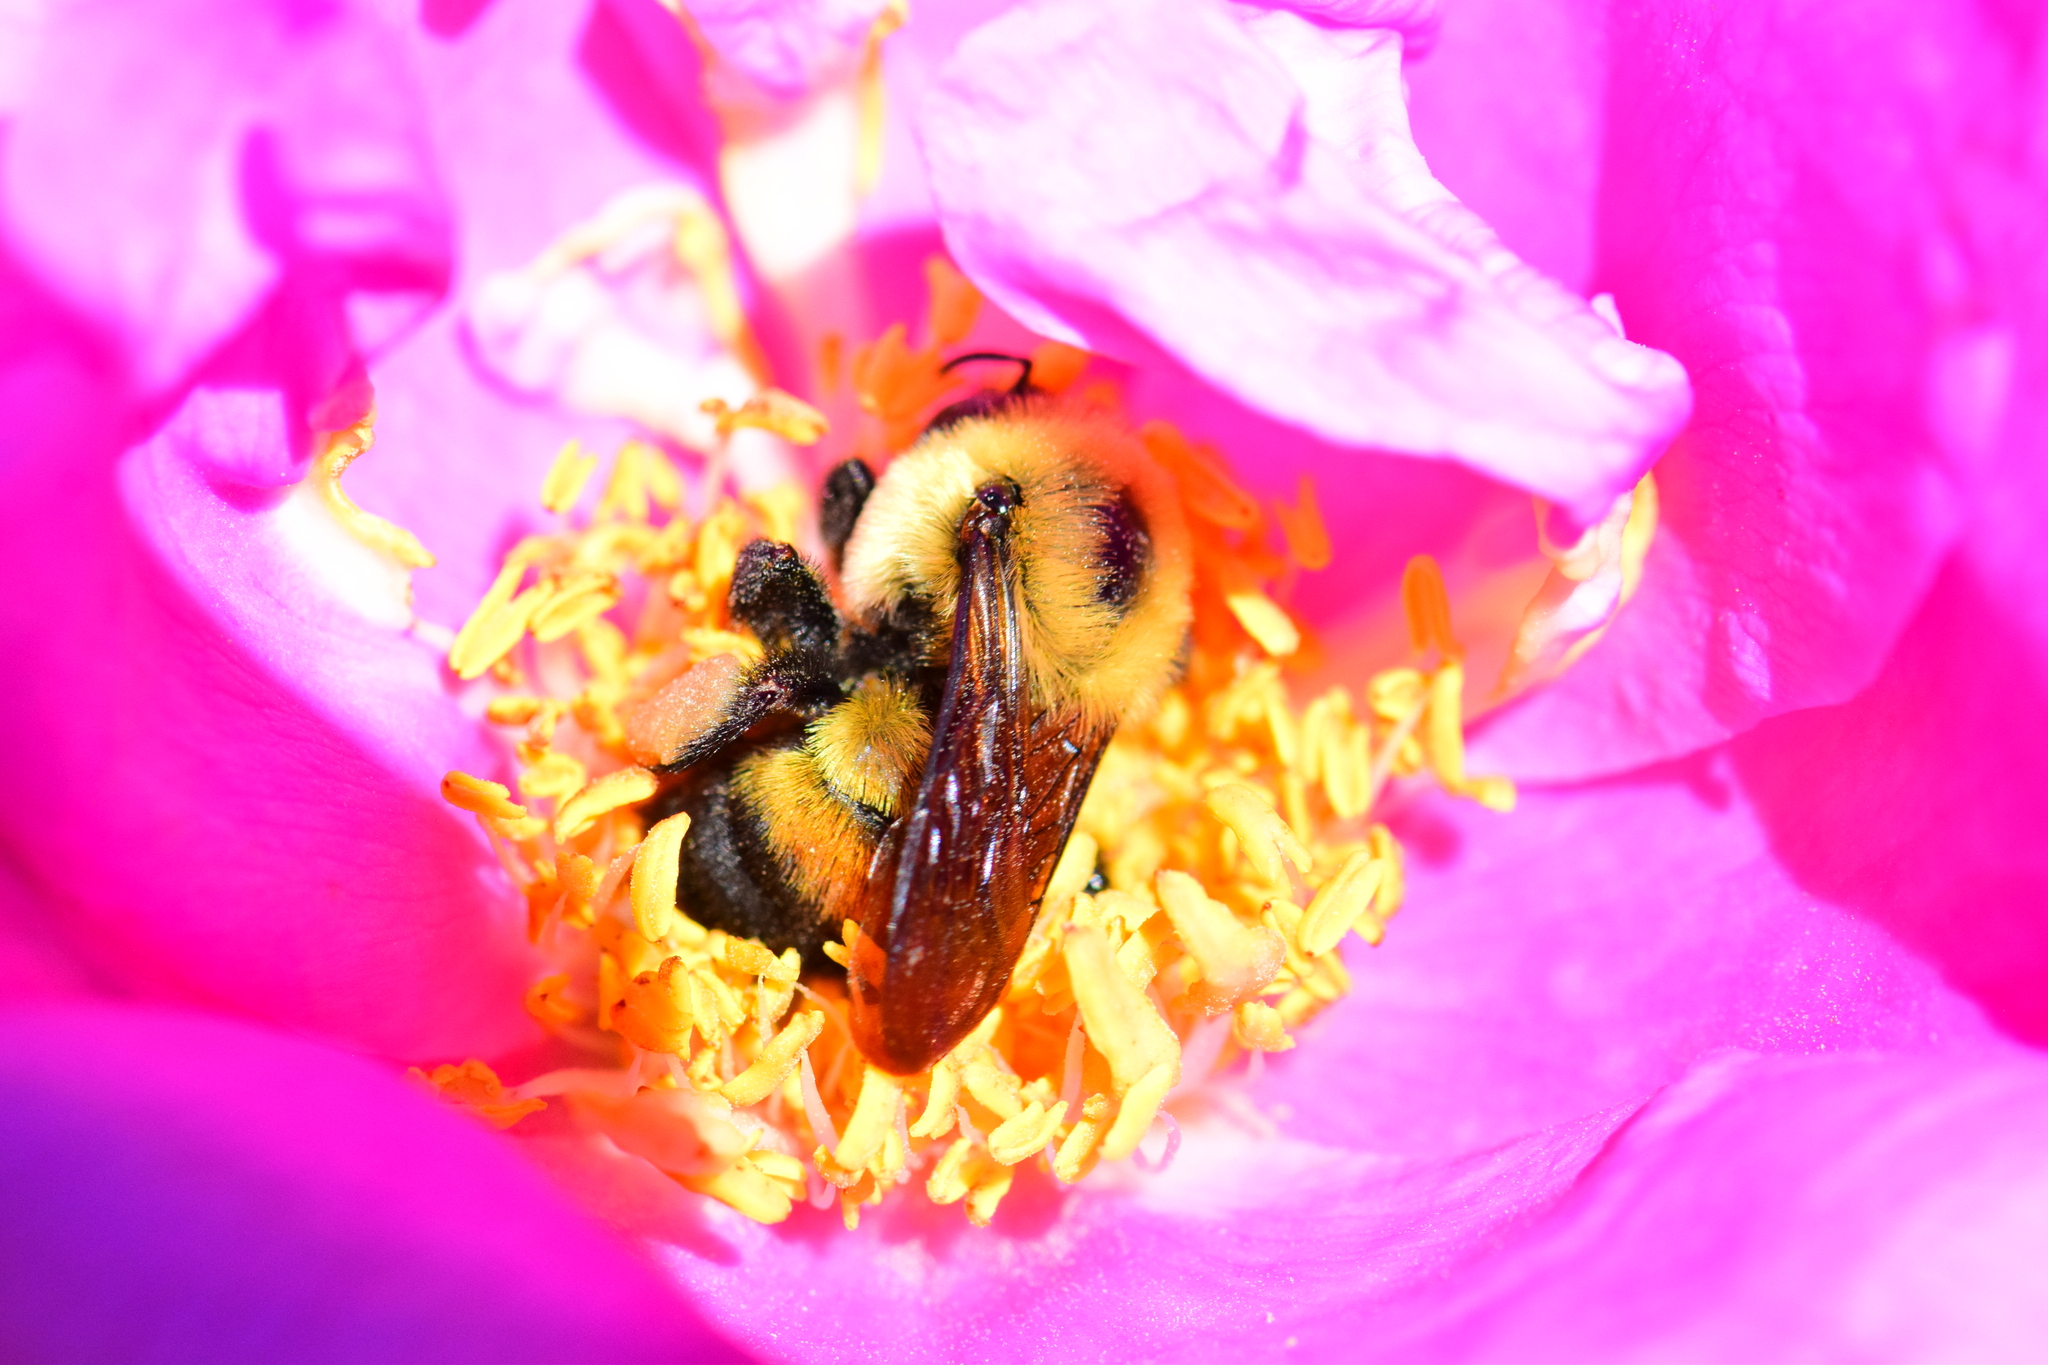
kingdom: Animalia
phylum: Arthropoda
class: Insecta
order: Hymenoptera
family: Apidae
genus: Bombus
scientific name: Bombus griseocollis
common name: Brown-belted bumble bee
